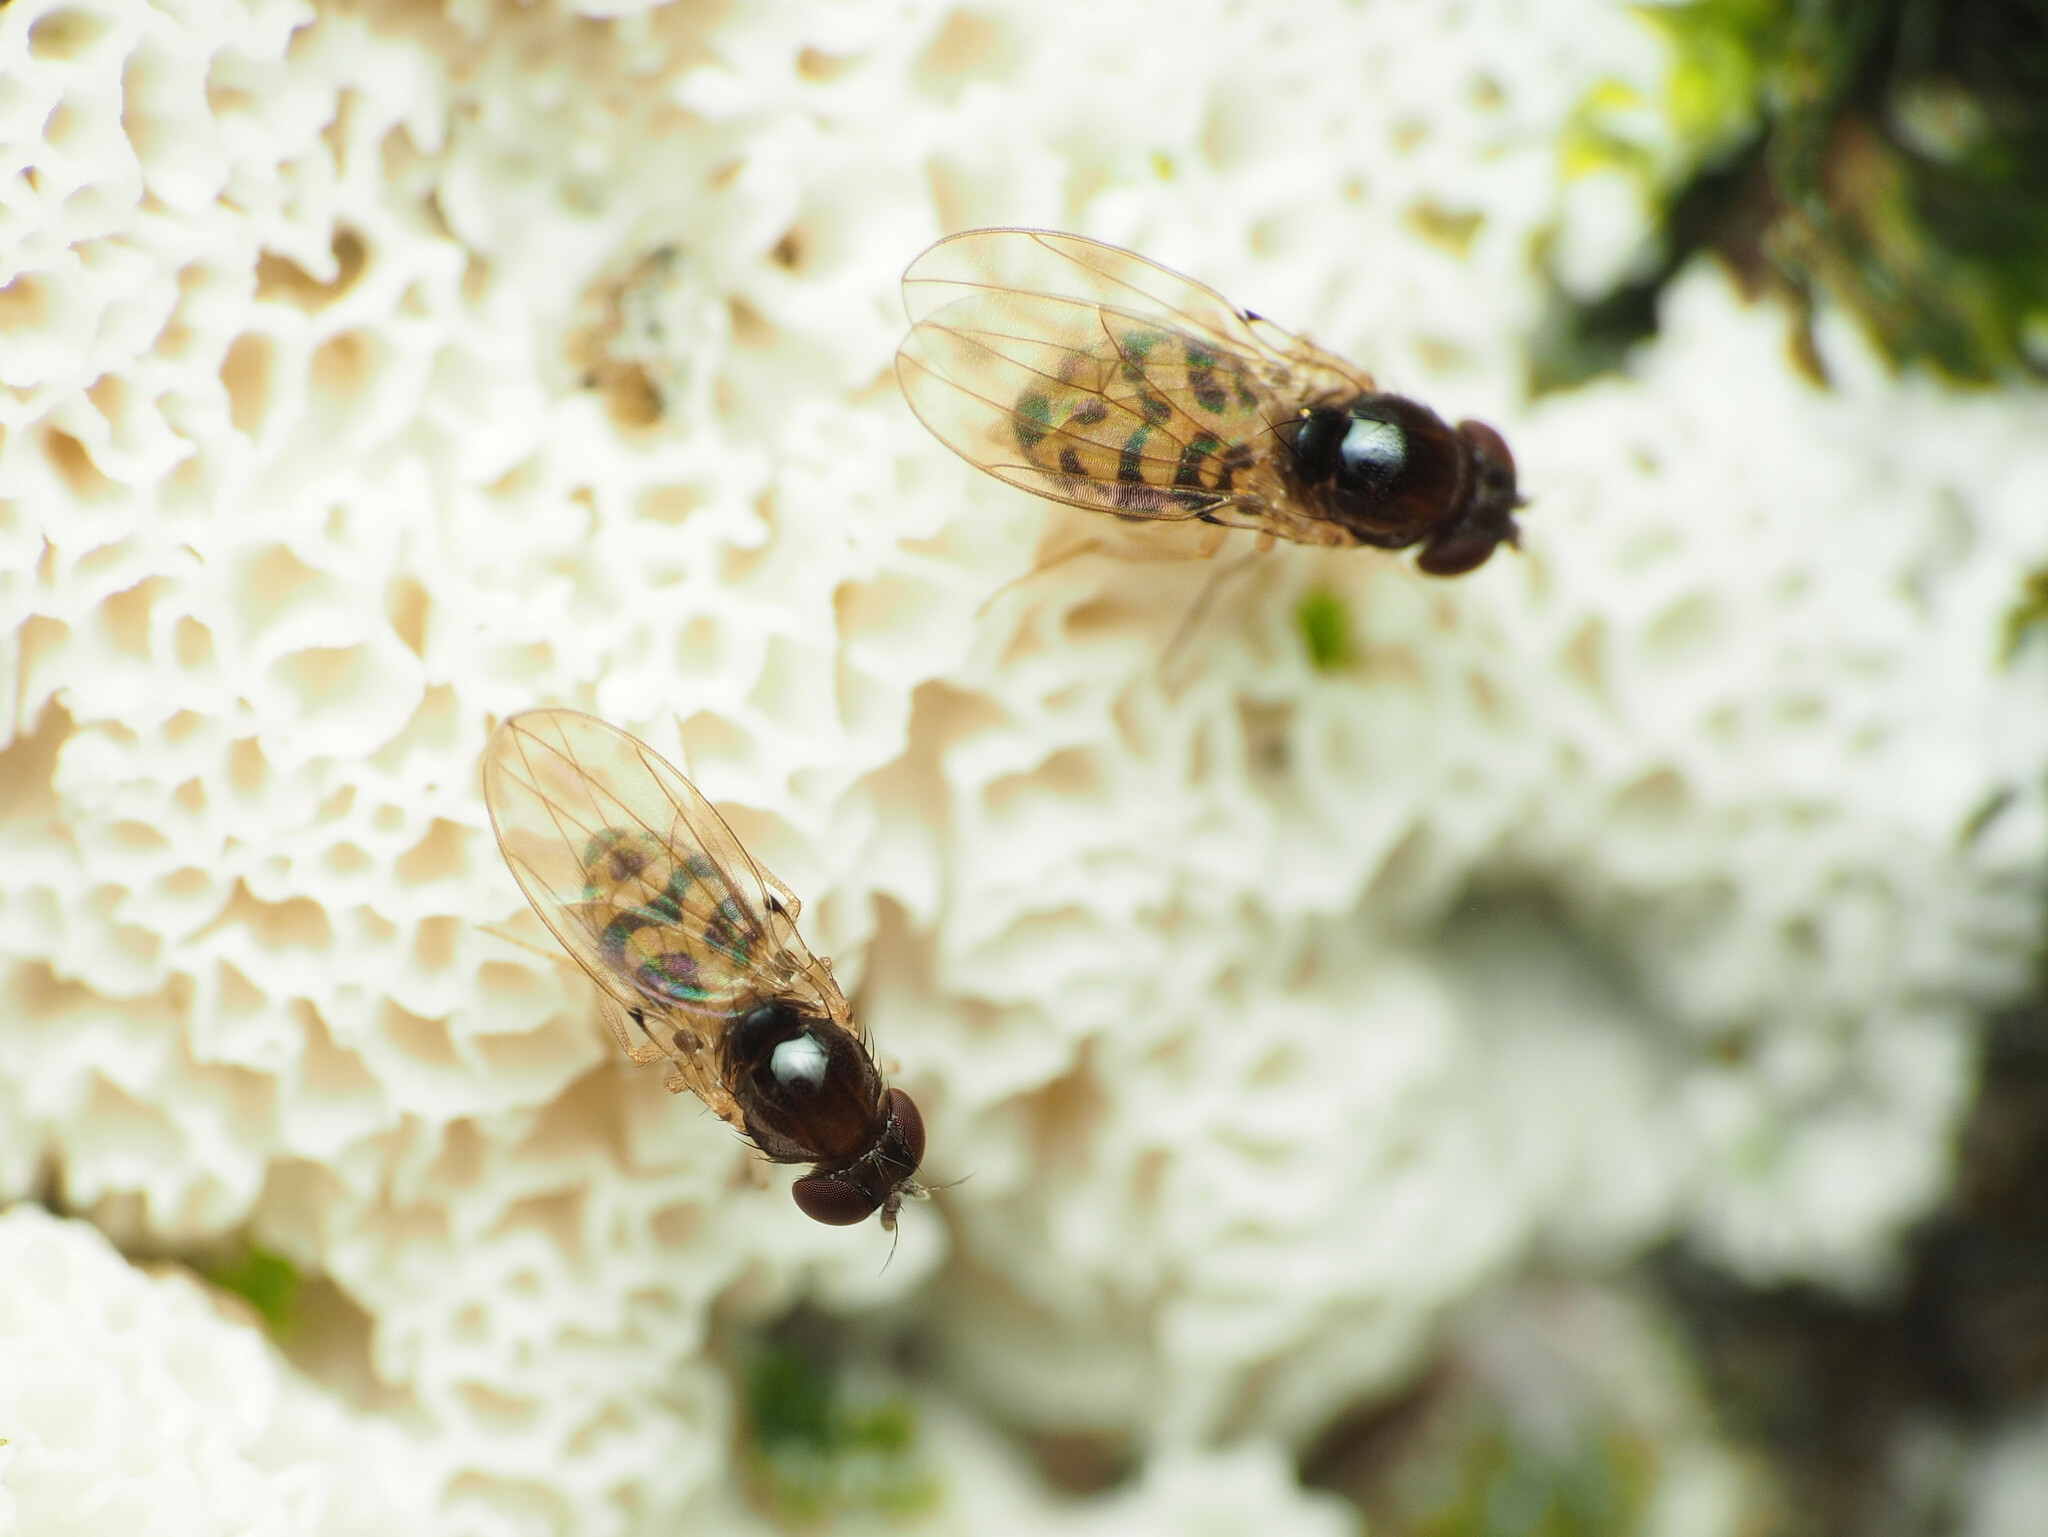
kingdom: Animalia
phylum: Arthropoda
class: Insecta
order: Diptera
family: Drosophilidae
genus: Mycodrosophila
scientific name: Mycodrosophila claytonae
